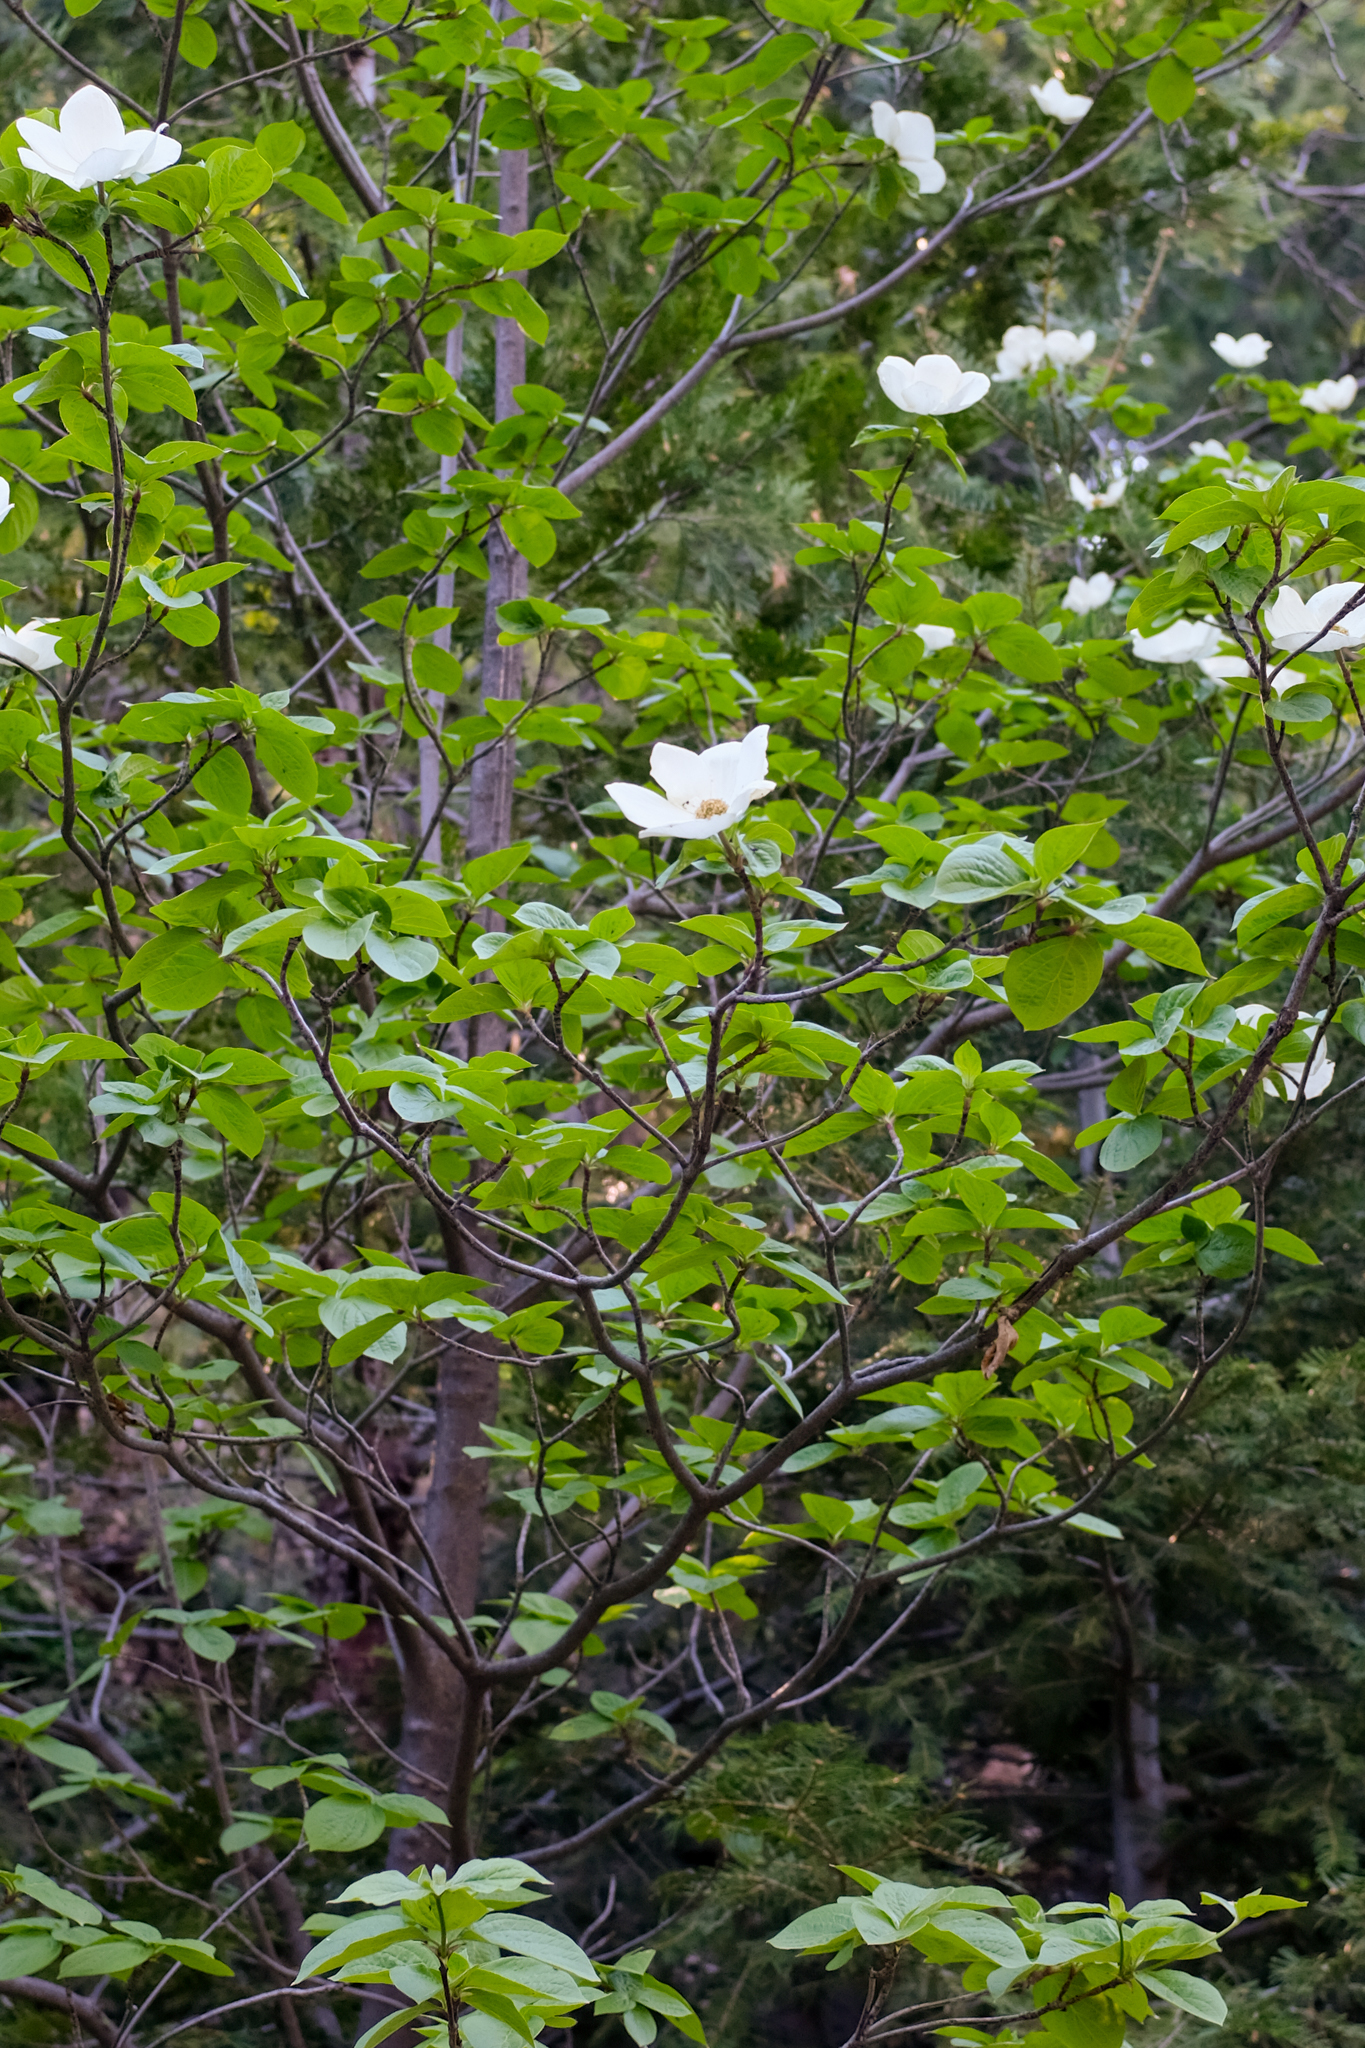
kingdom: Plantae
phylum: Tracheophyta
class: Magnoliopsida
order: Cornales
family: Cornaceae
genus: Cornus
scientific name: Cornus nuttallii
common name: Pacific dogwood
